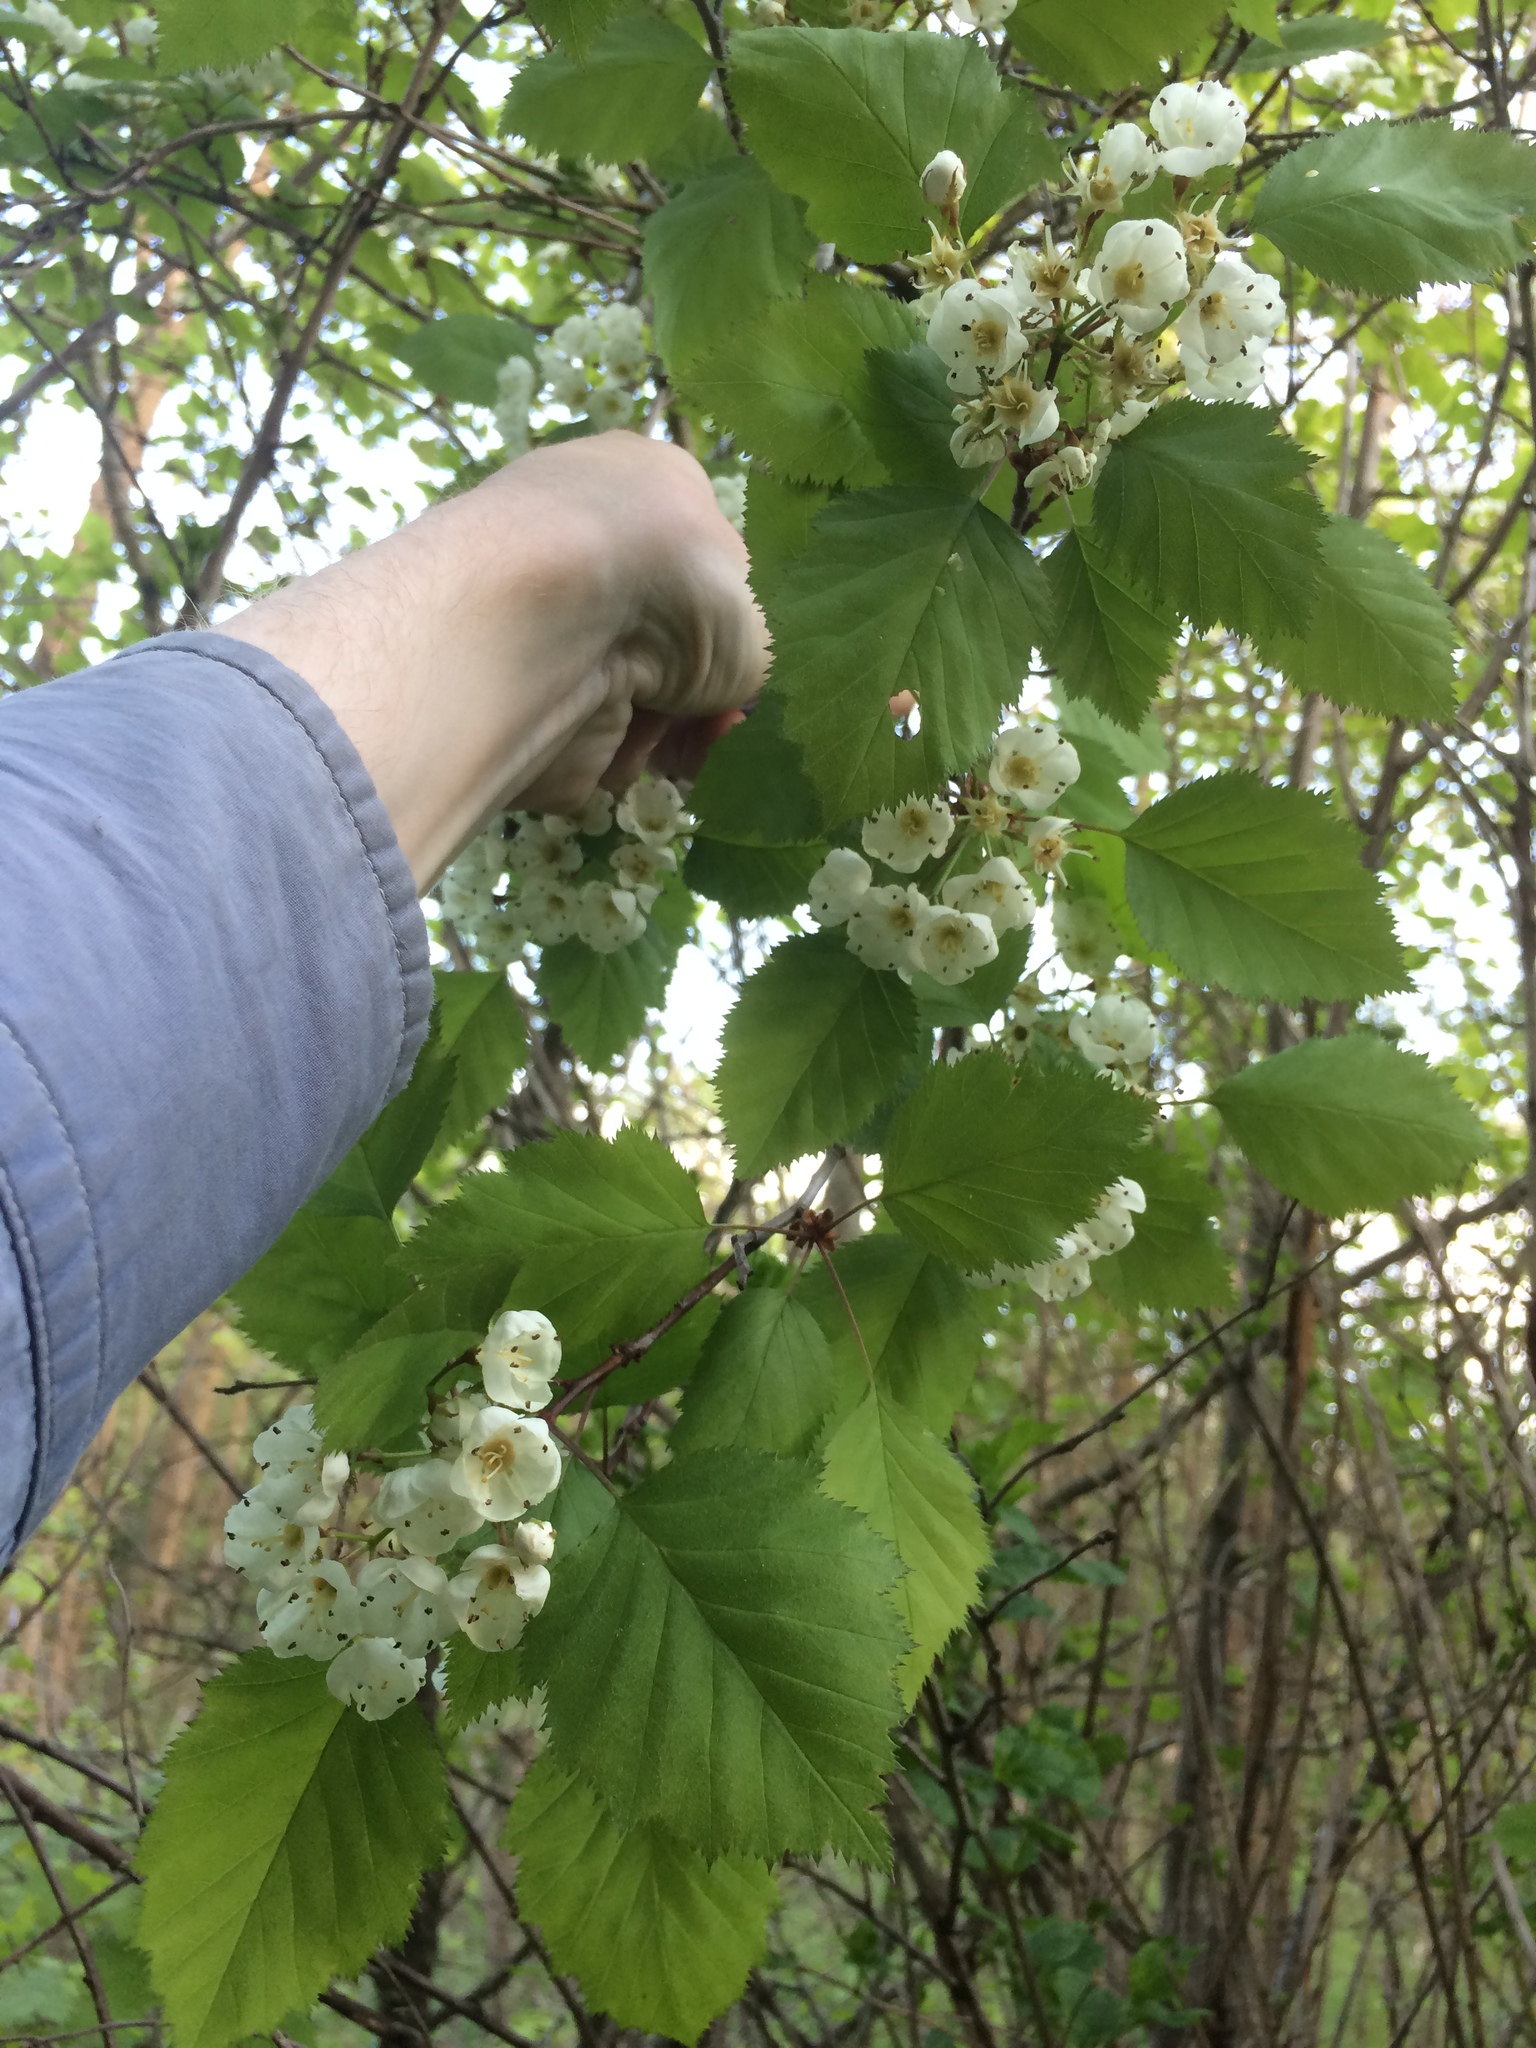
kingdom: Plantae
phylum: Tracheophyta
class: Magnoliopsida
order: Rosales
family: Rosaceae
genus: Crataegus
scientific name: Crataegus holmesiana
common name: Holmes' hawthorn
